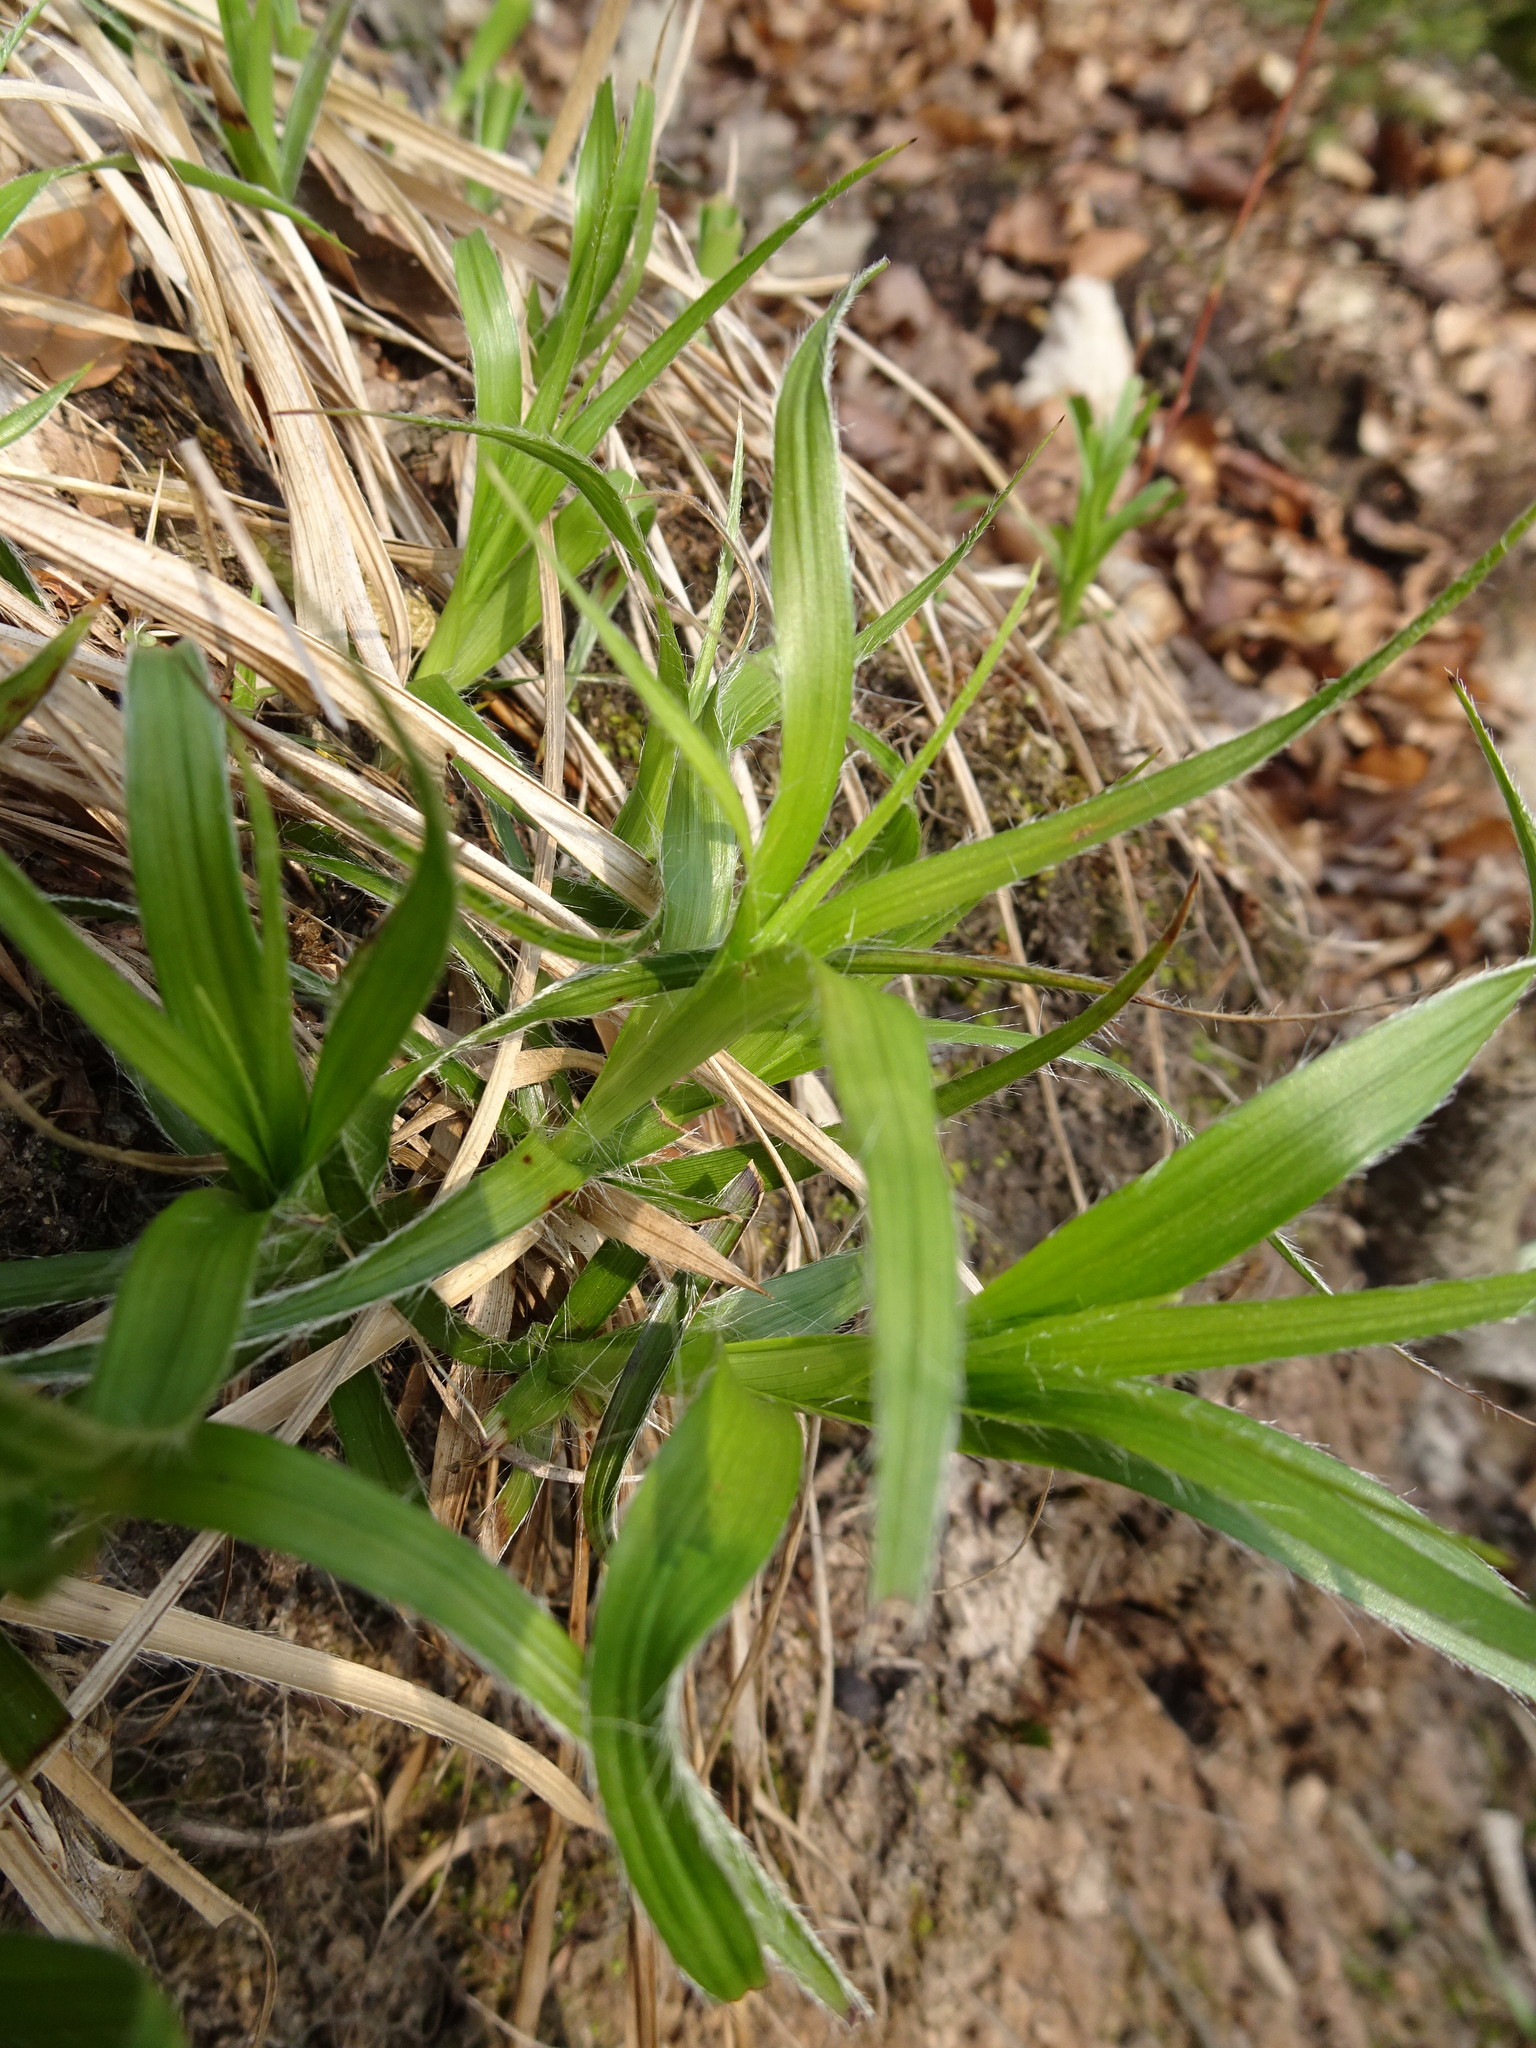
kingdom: Plantae
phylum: Tracheophyta
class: Liliopsida
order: Poales
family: Juncaceae
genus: Luzula
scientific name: Luzula pilosa
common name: Hairy wood-rush
